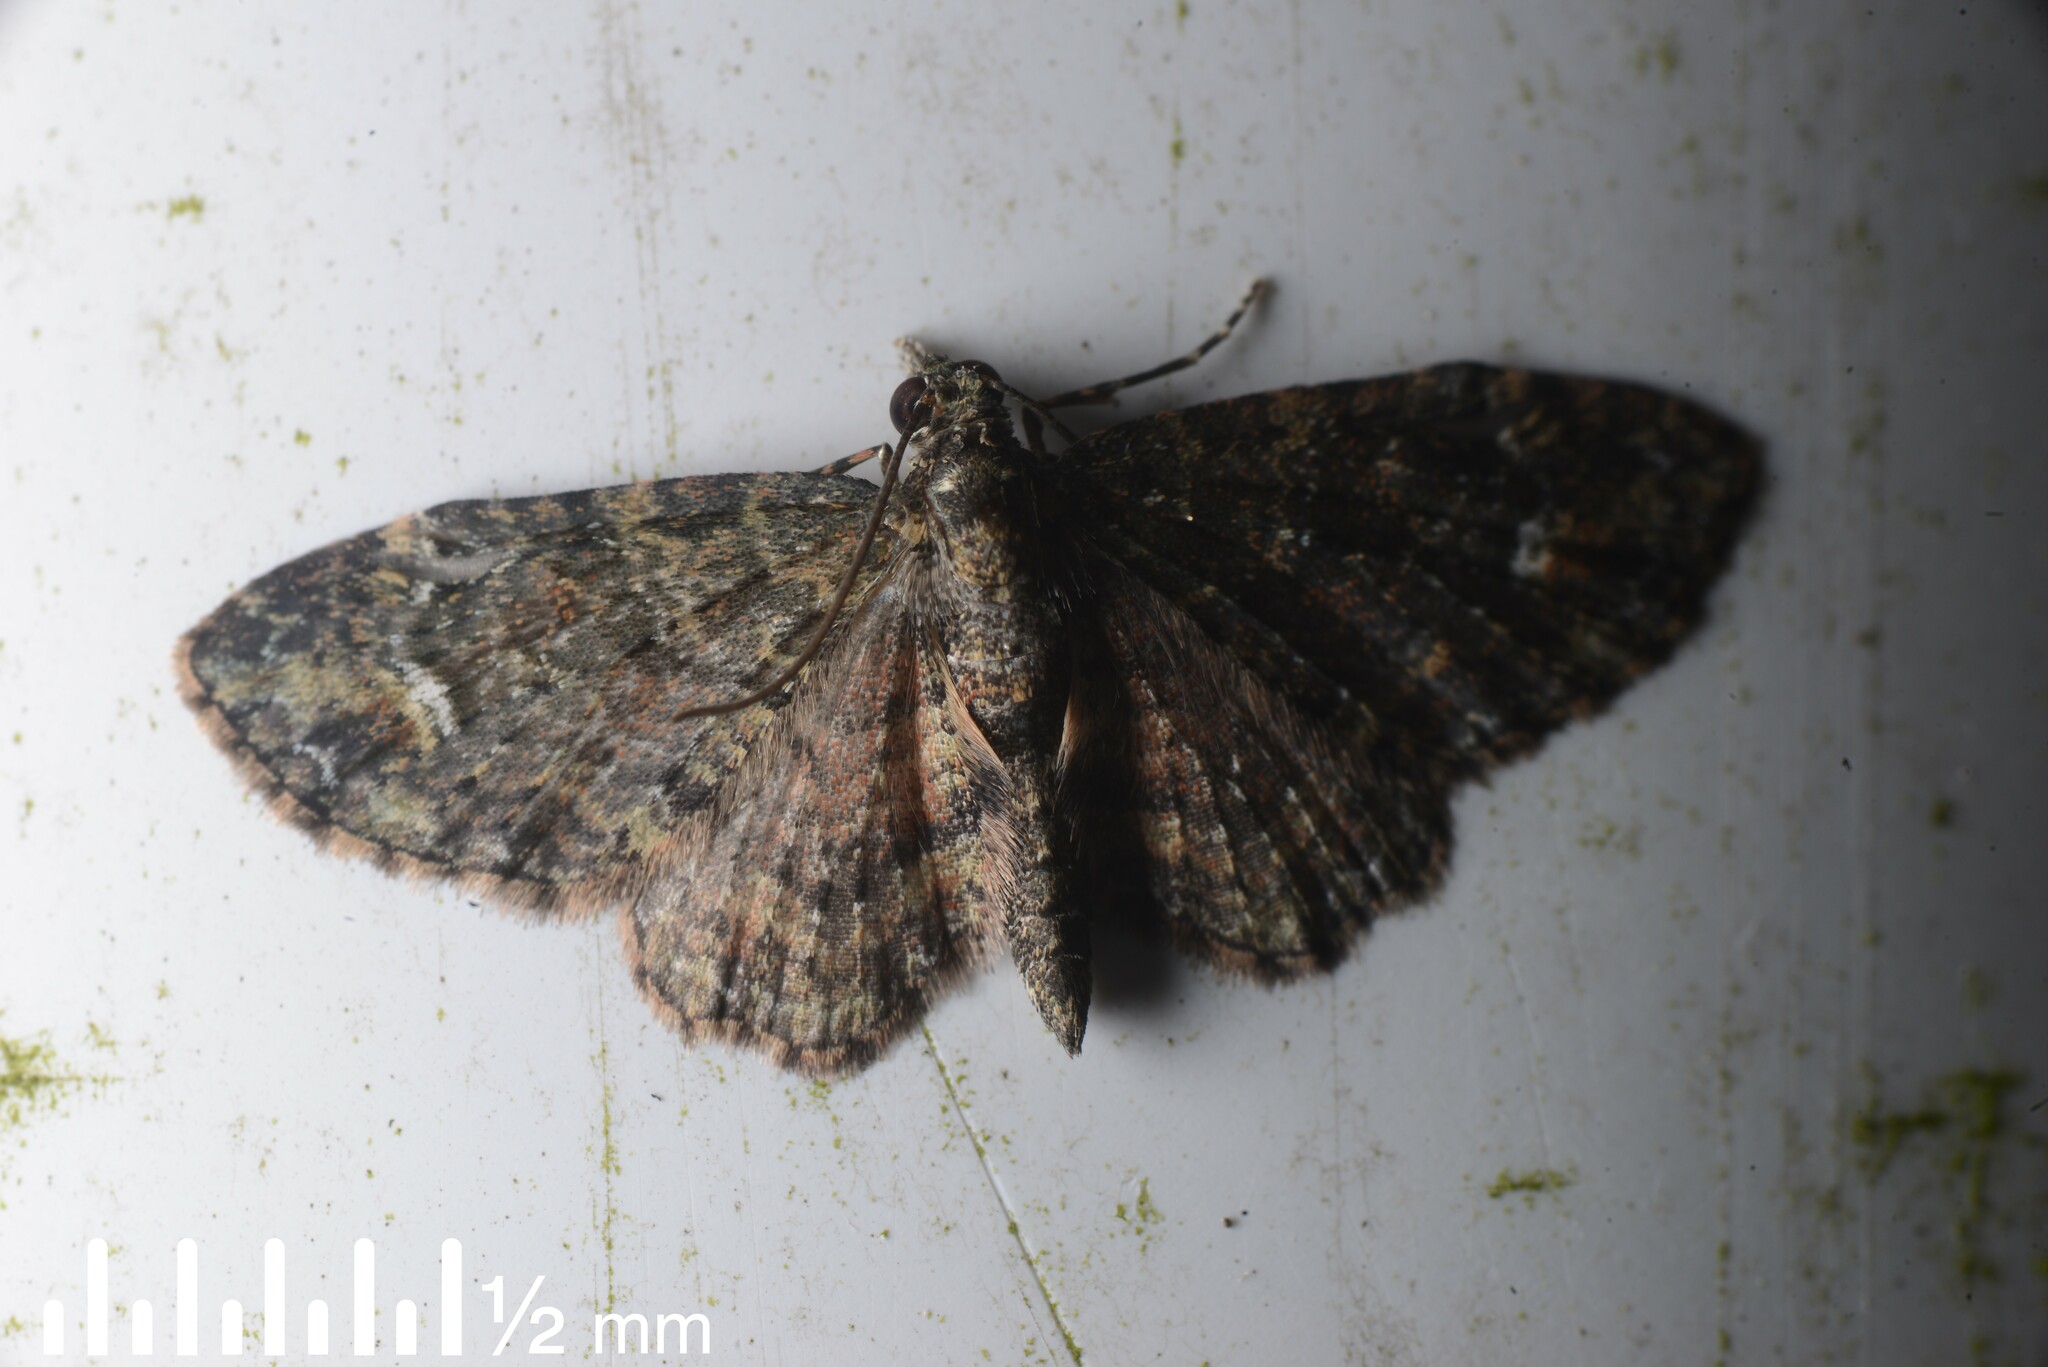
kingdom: Animalia
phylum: Arthropoda
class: Insecta
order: Lepidoptera
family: Geometridae
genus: Pasiphilodes
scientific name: Pasiphilodes testulata
